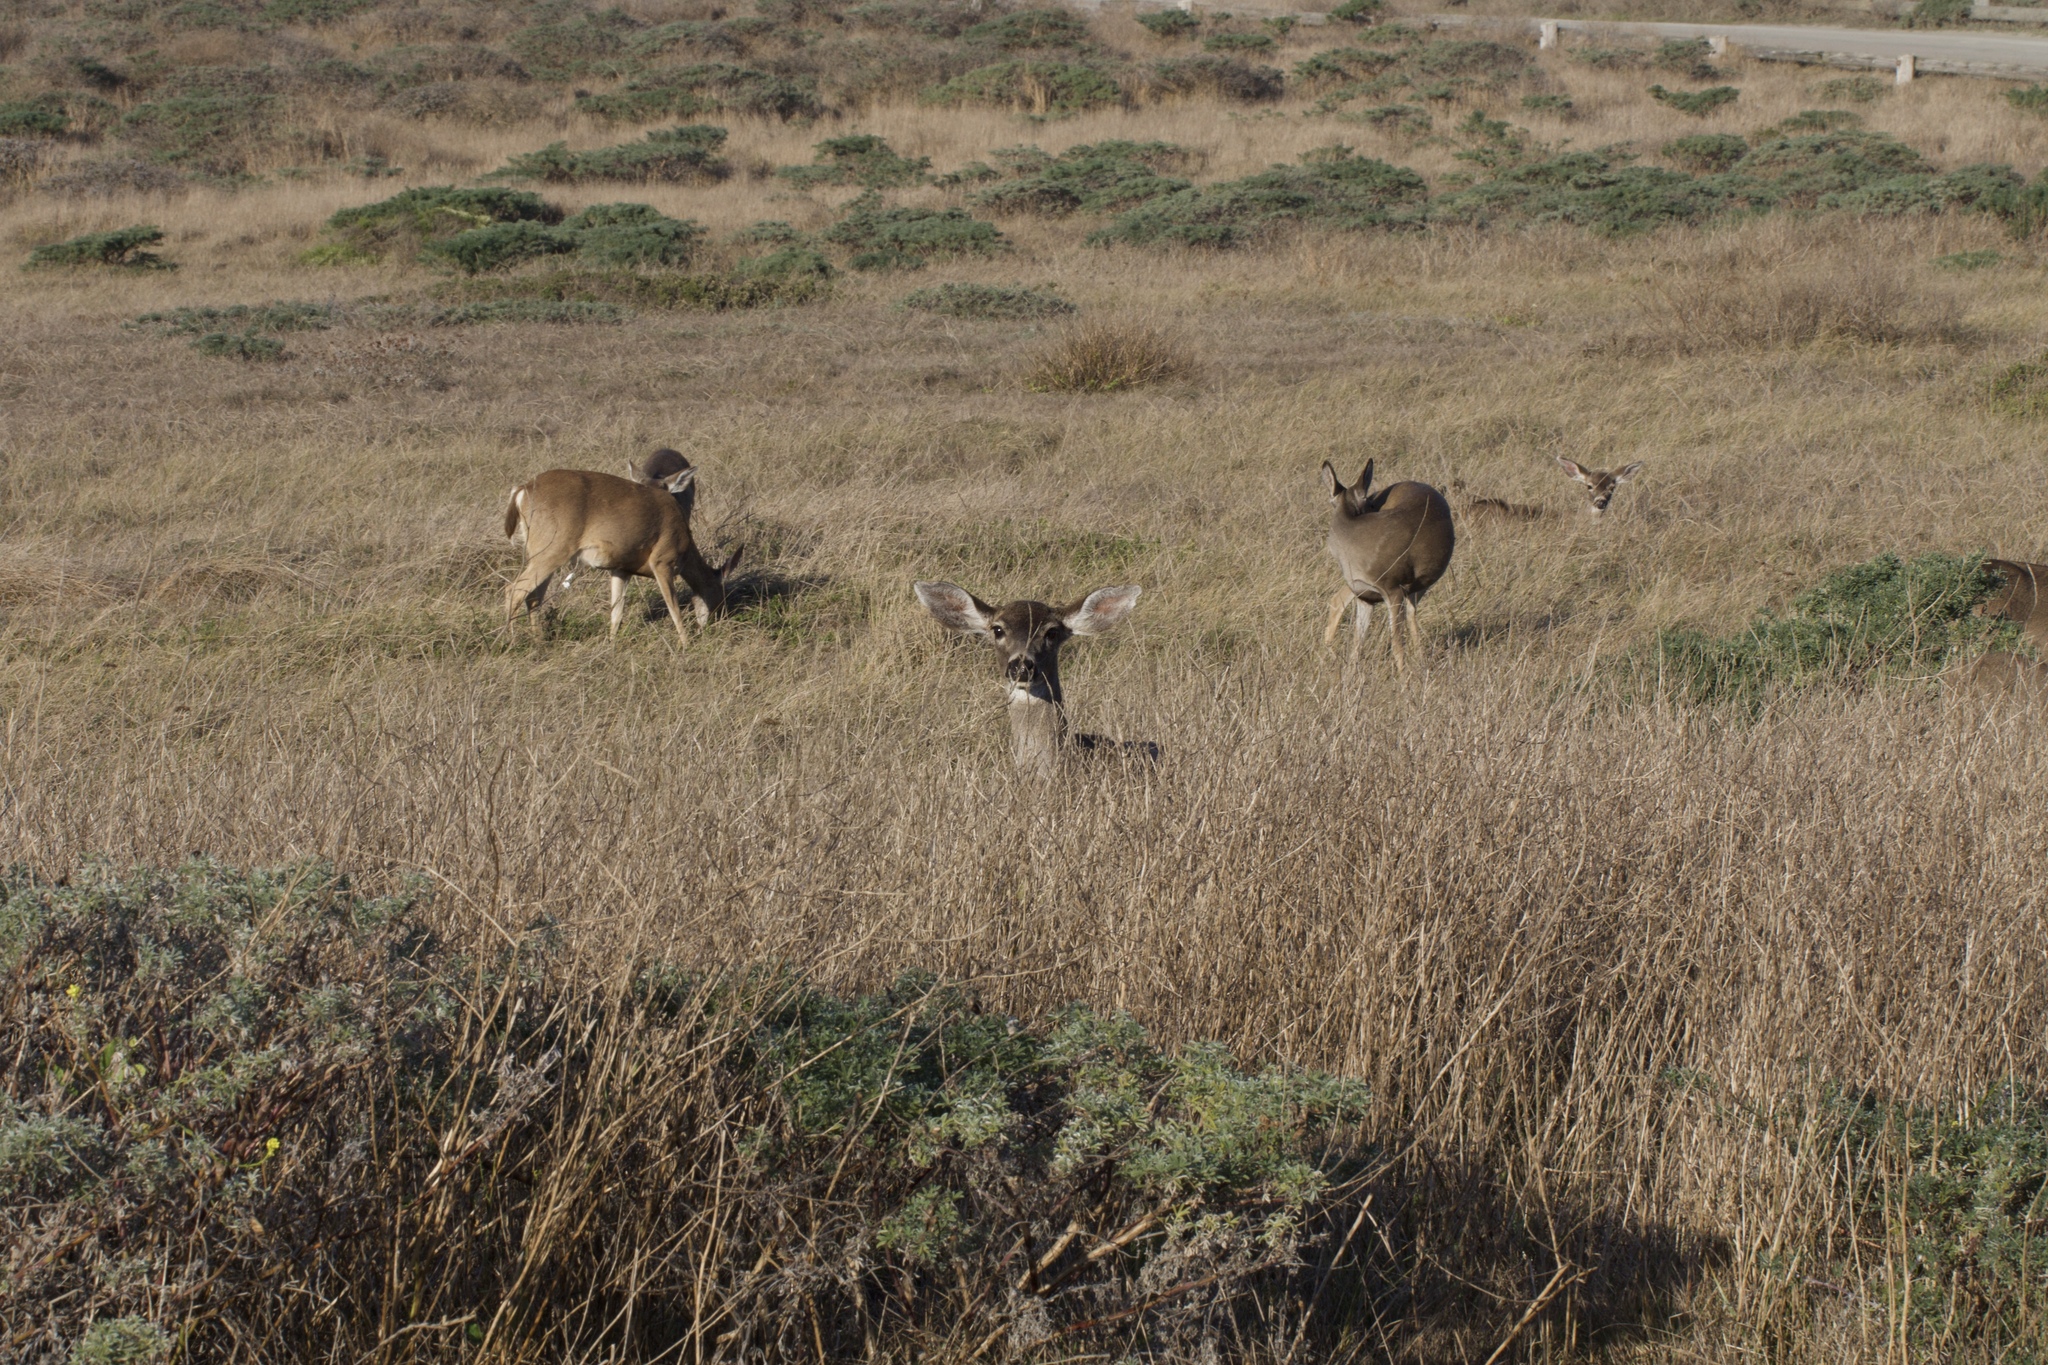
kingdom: Animalia
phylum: Chordata
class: Mammalia
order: Artiodactyla
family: Cervidae
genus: Odocoileus
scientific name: Odocoileus hemionus
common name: Mule deer
